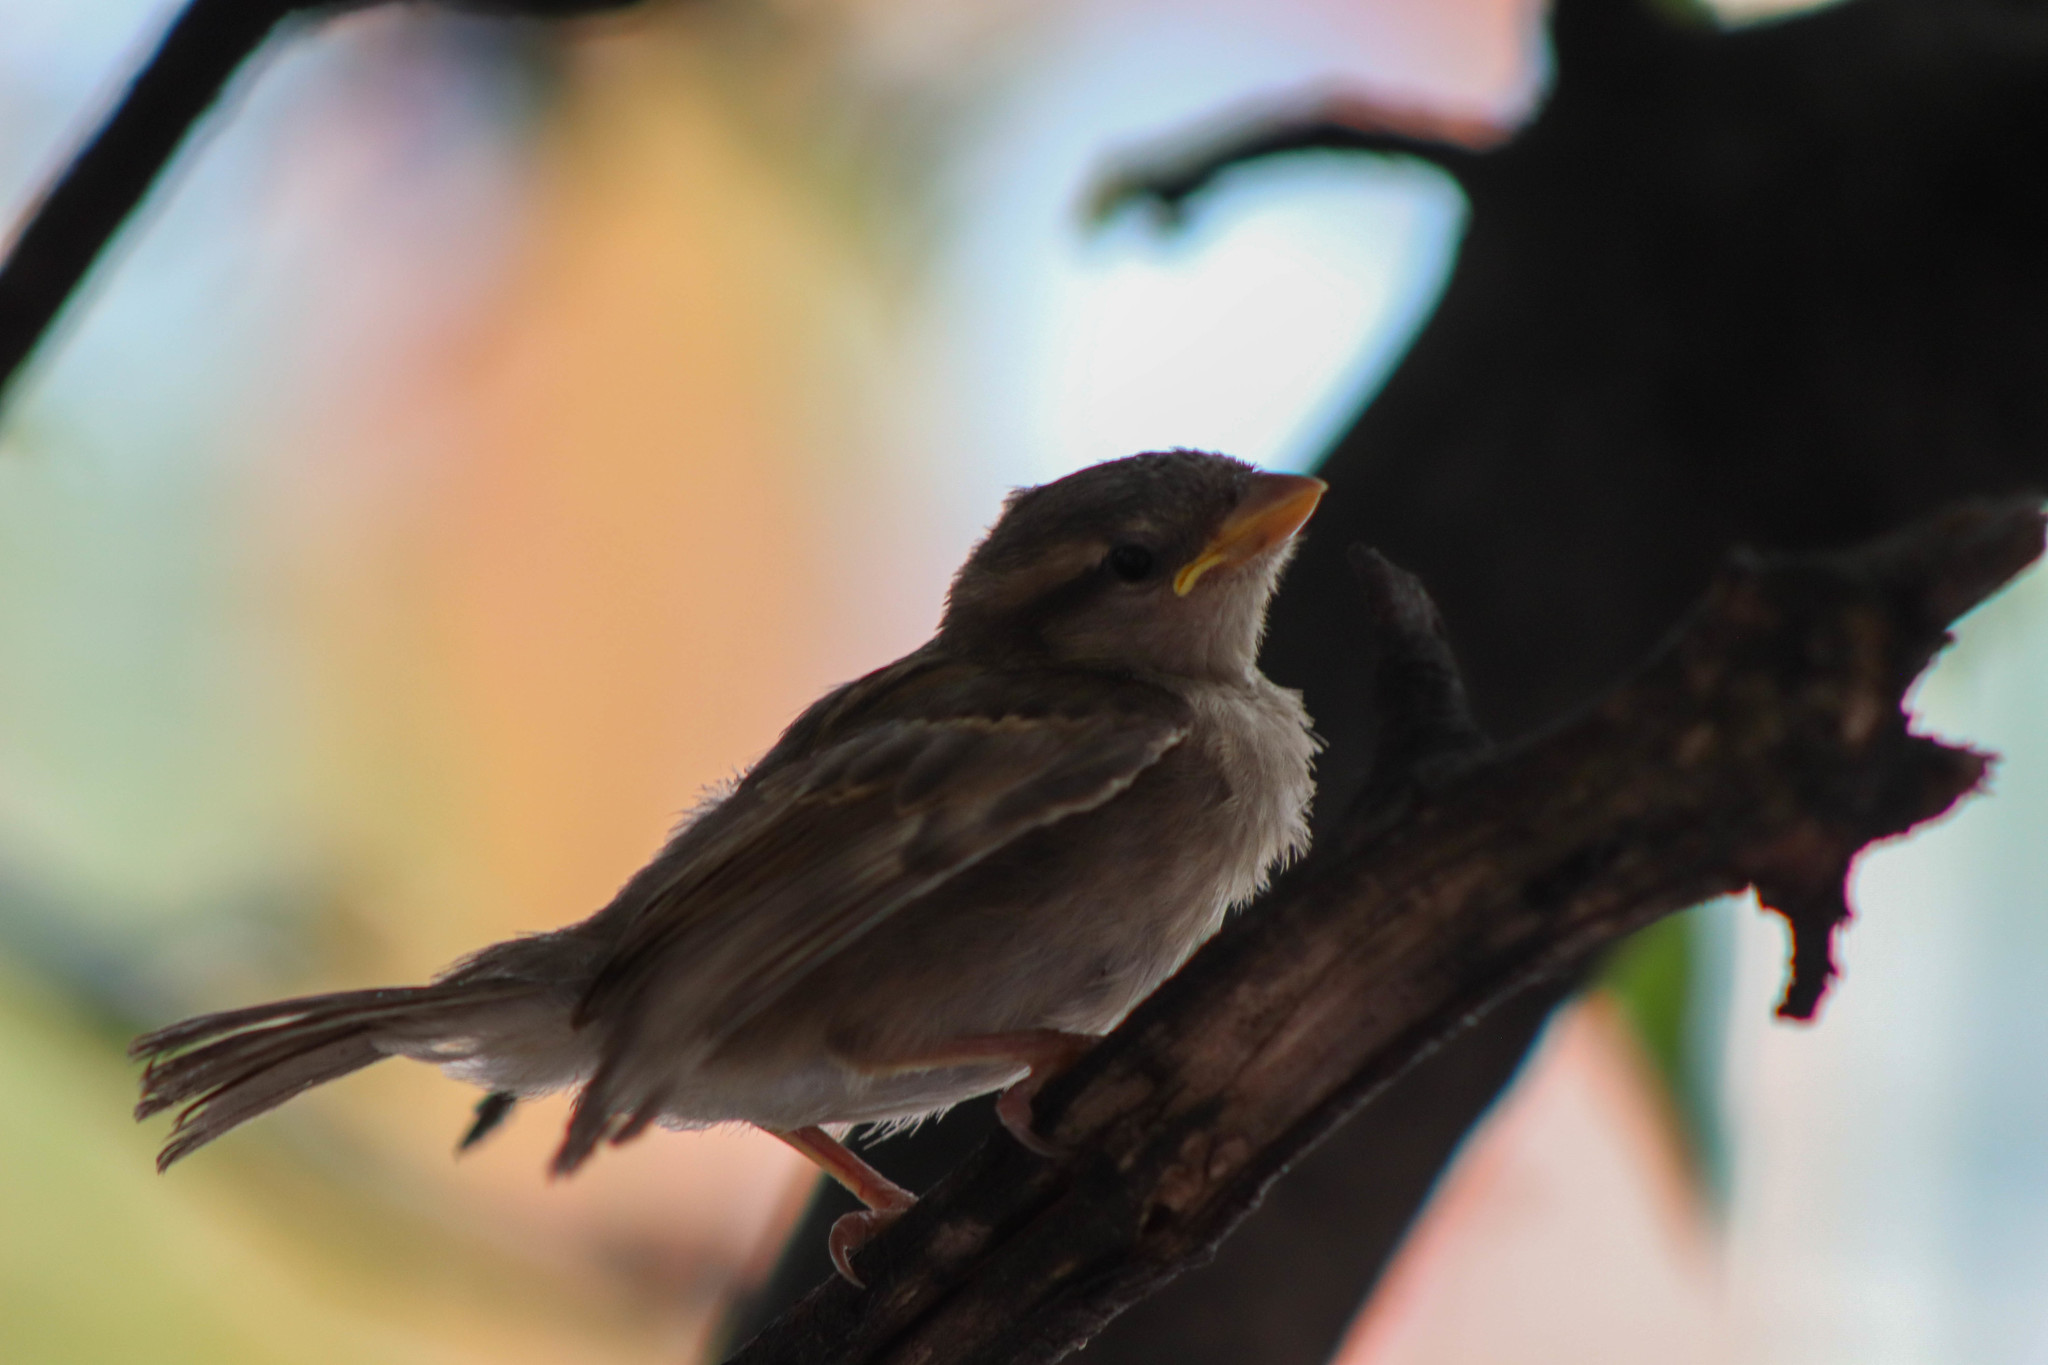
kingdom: Animalia
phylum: Chordata
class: Aves
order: Passeriformes
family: Passeridae
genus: Passer
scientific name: Passer domesticus
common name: House sparrow
